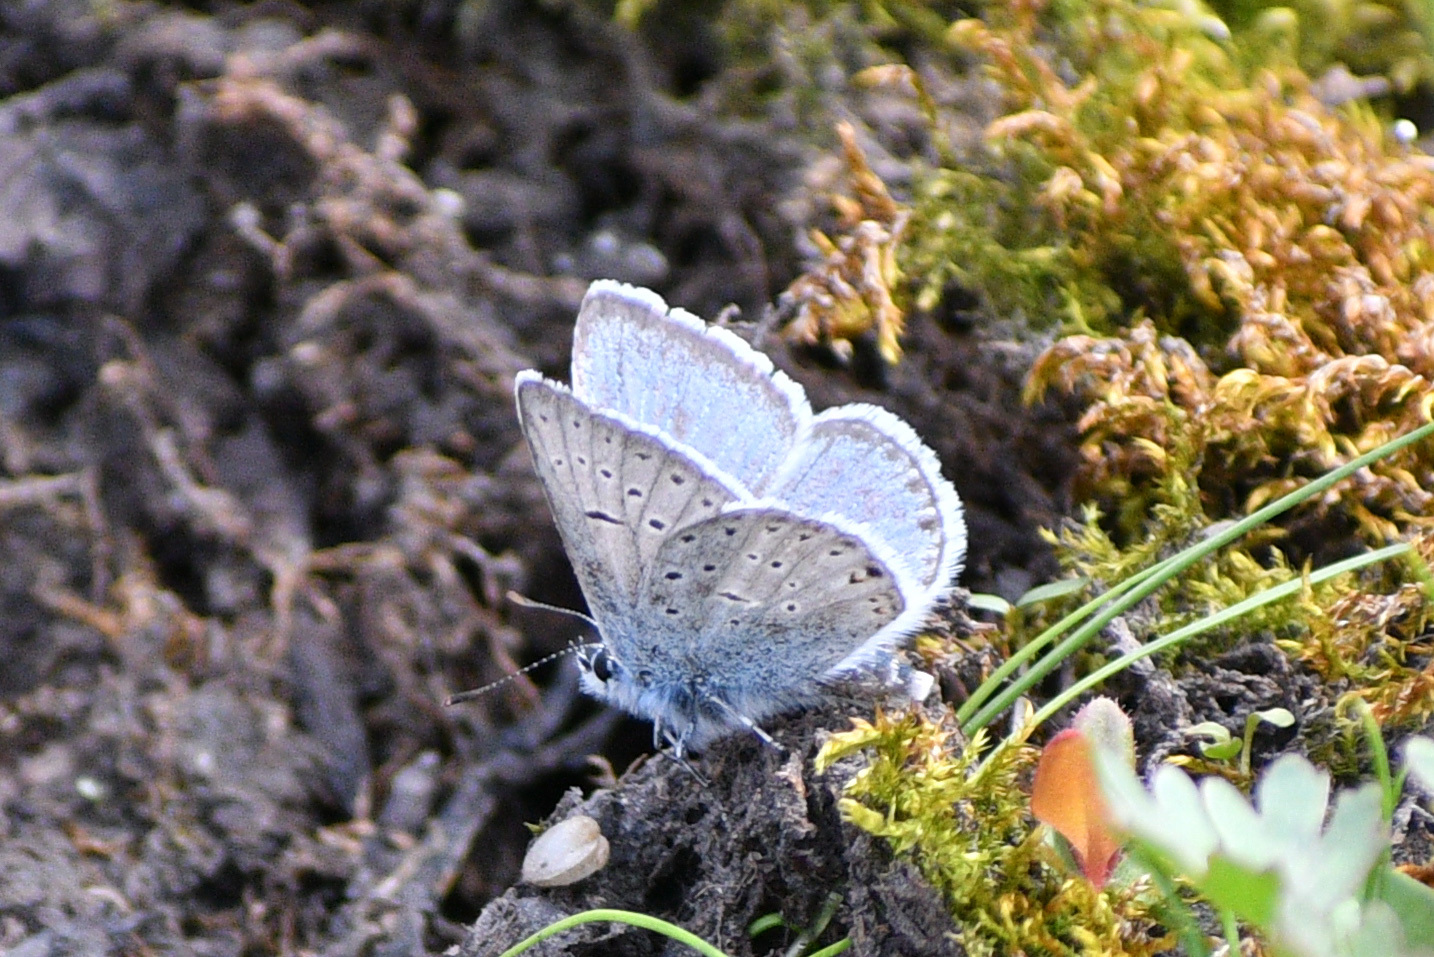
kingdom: Animalia
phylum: Arthropoda
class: Insecta
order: Lepidoptera
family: Lycaenidae
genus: Icaricia
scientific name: Icaricia saepiolus
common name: Greenish blue
